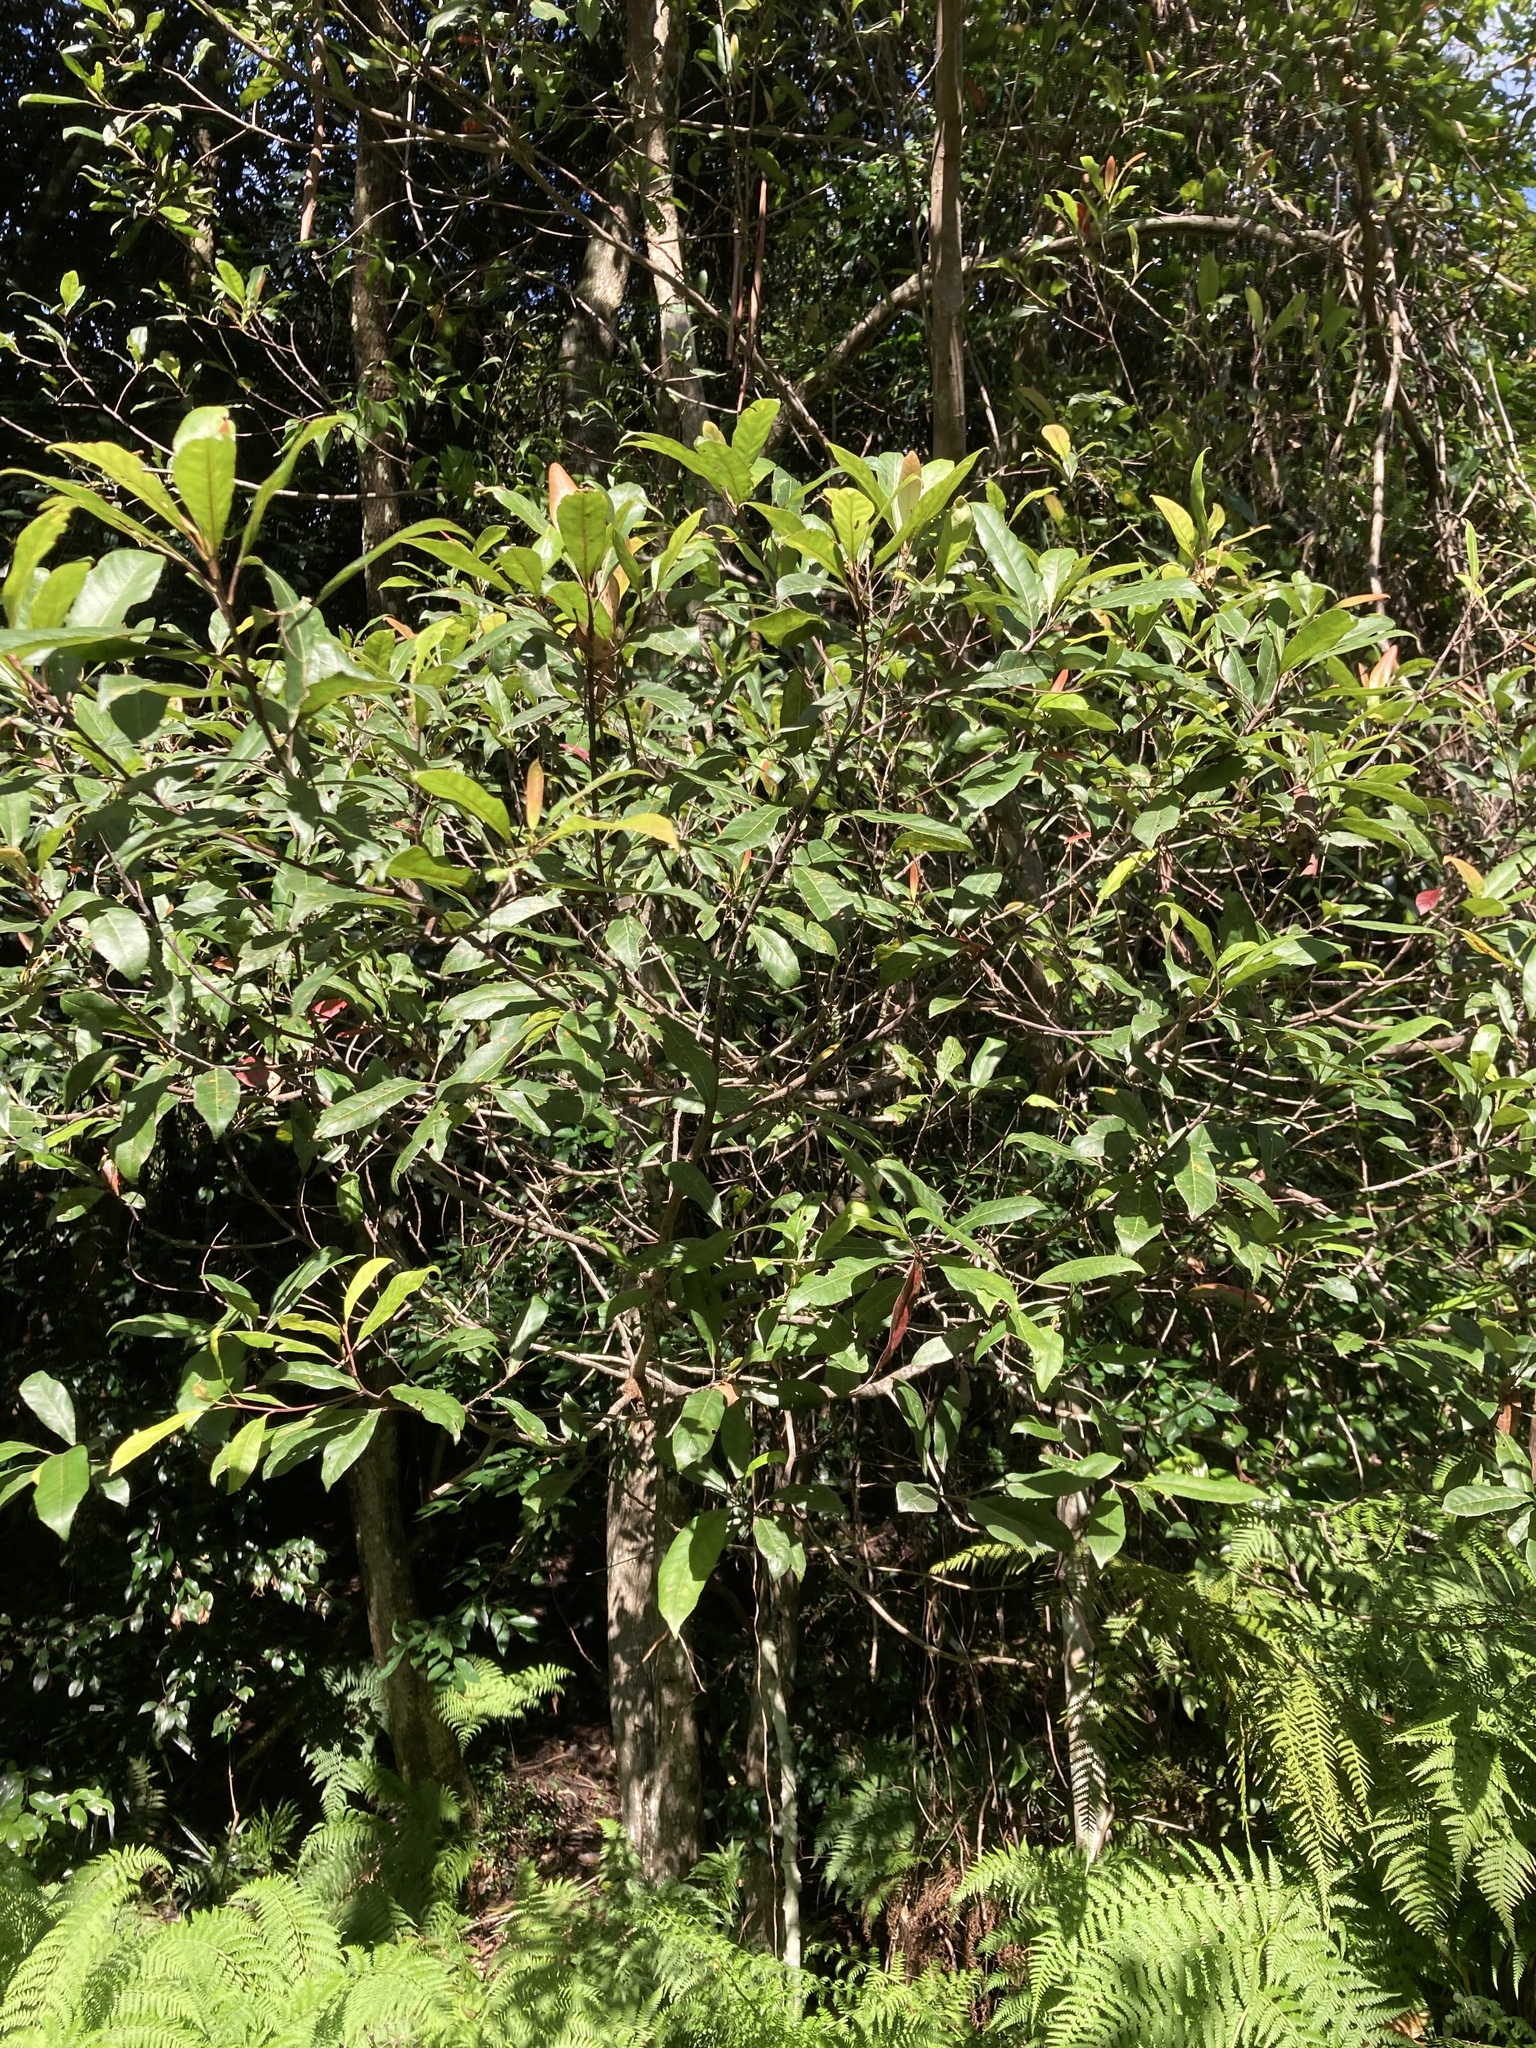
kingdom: Plantae
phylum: Tracheophyta
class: Magnoliopsida
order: Oxalidales
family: Elaeocarpaceae
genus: Elaeocarpus
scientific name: Elaeocarpus reticulatus
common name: Ash quandong
